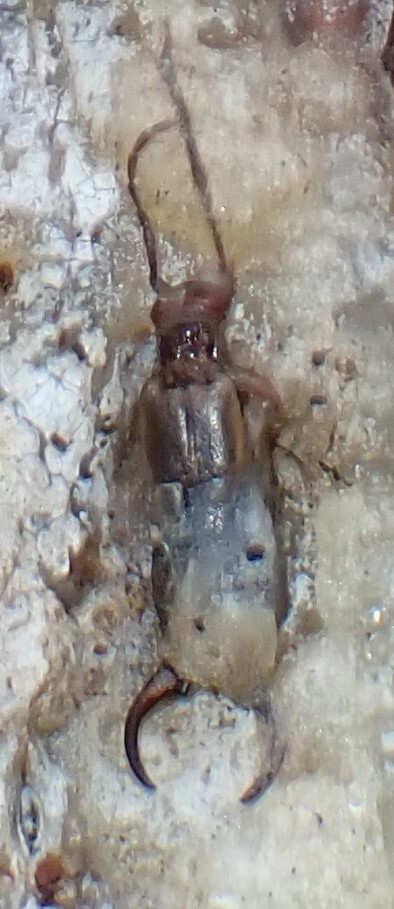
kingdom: Animalia
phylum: Arthropoda
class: Insecta
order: Dermaptera
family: Forficulidae
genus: Forficula
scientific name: Forficula dentata
